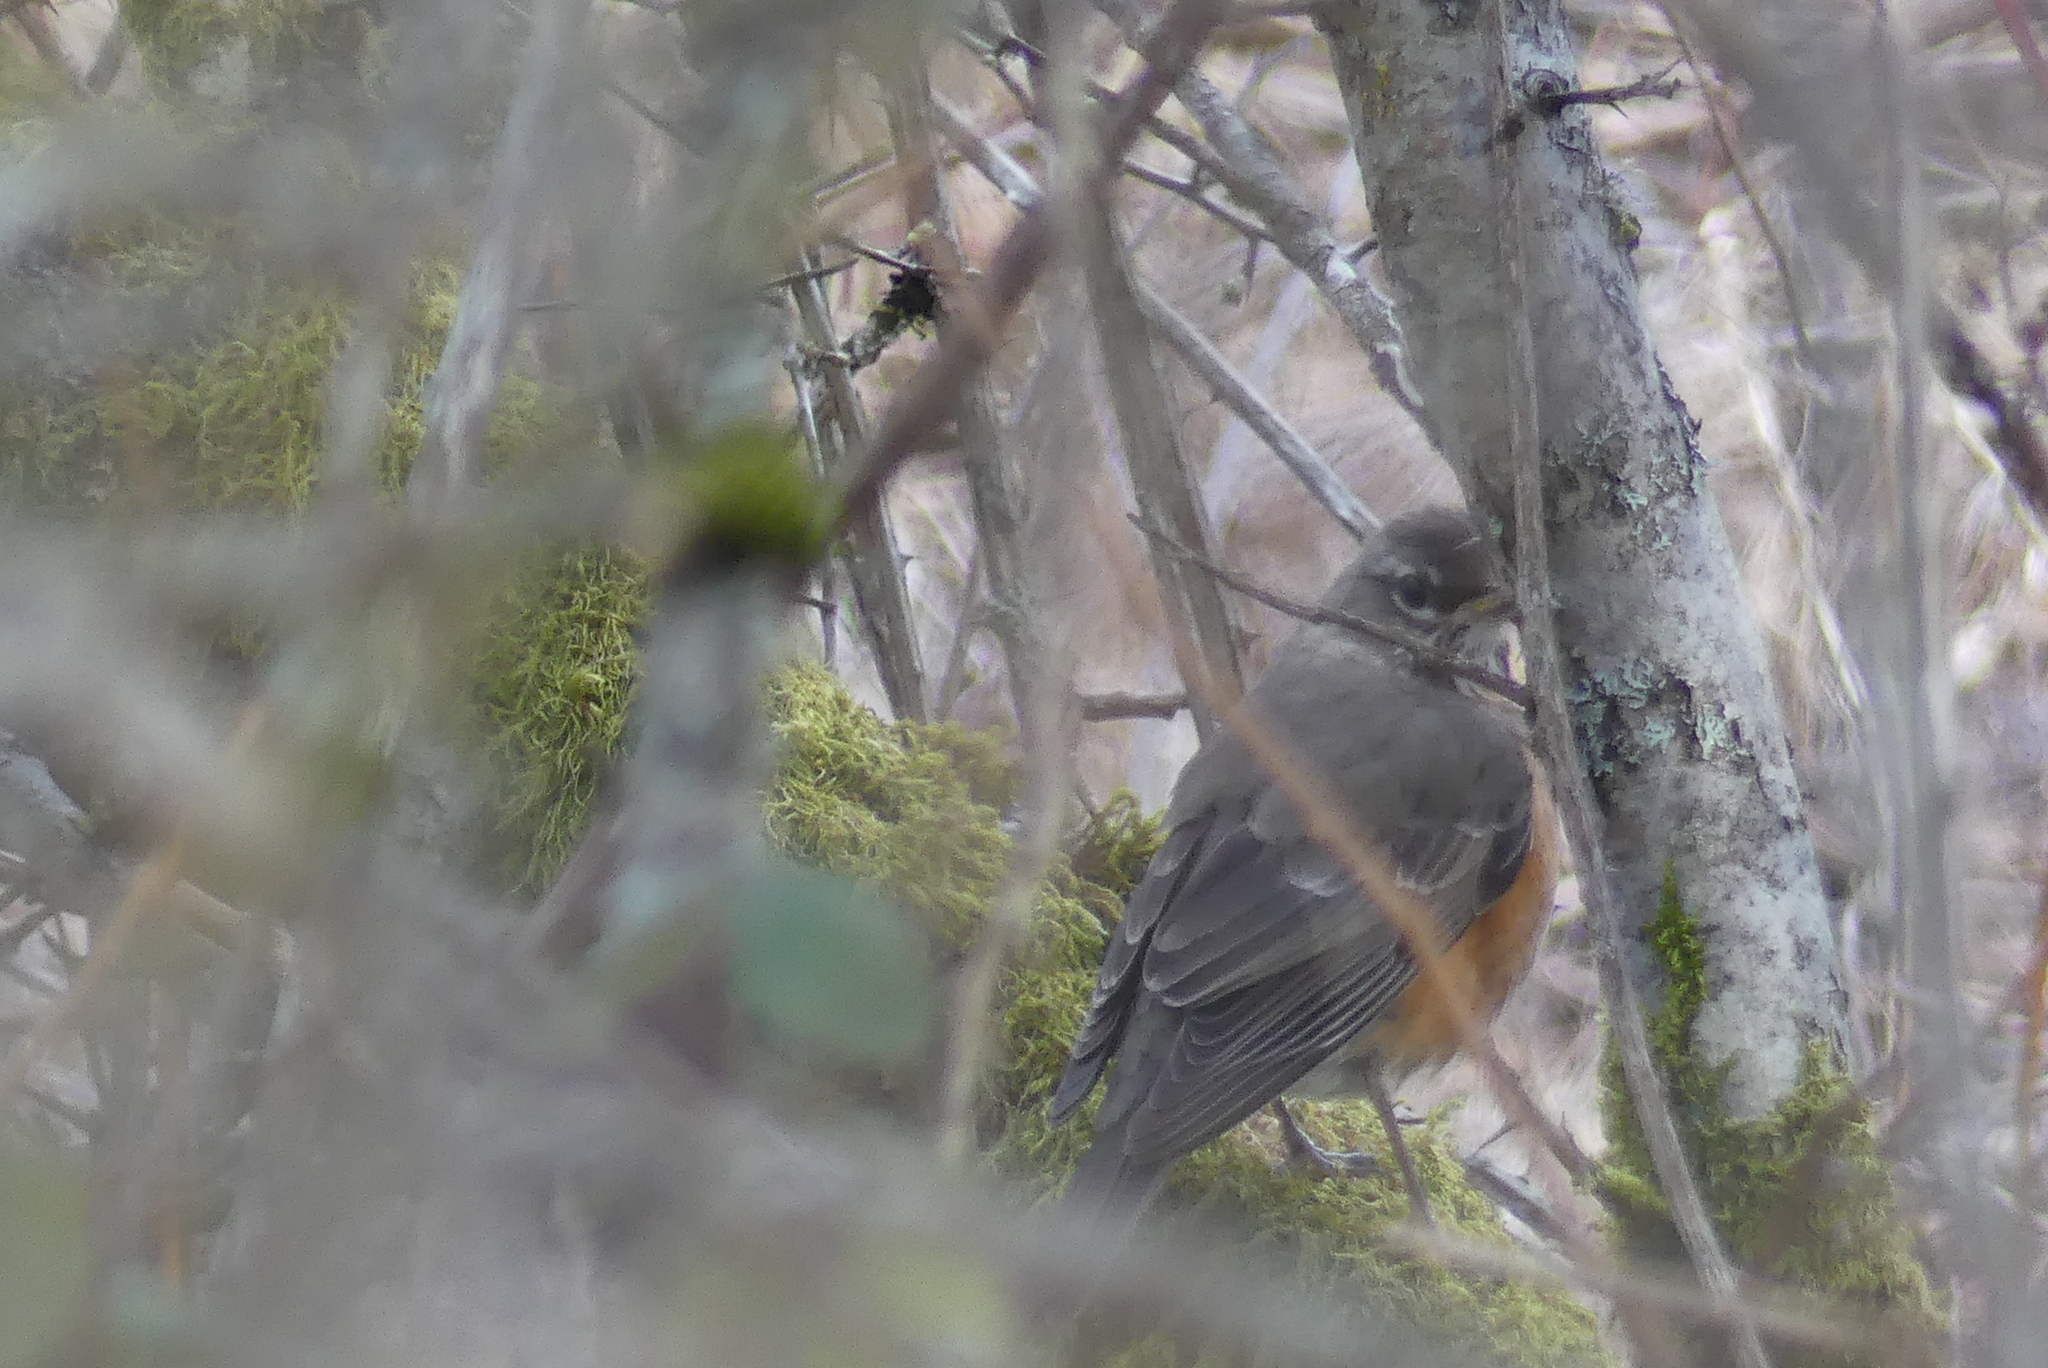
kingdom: Animalia
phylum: Chordata
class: Aves
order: Passeriformes
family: Turdidae
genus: Turdus
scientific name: Turdus migratorius
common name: American robin
